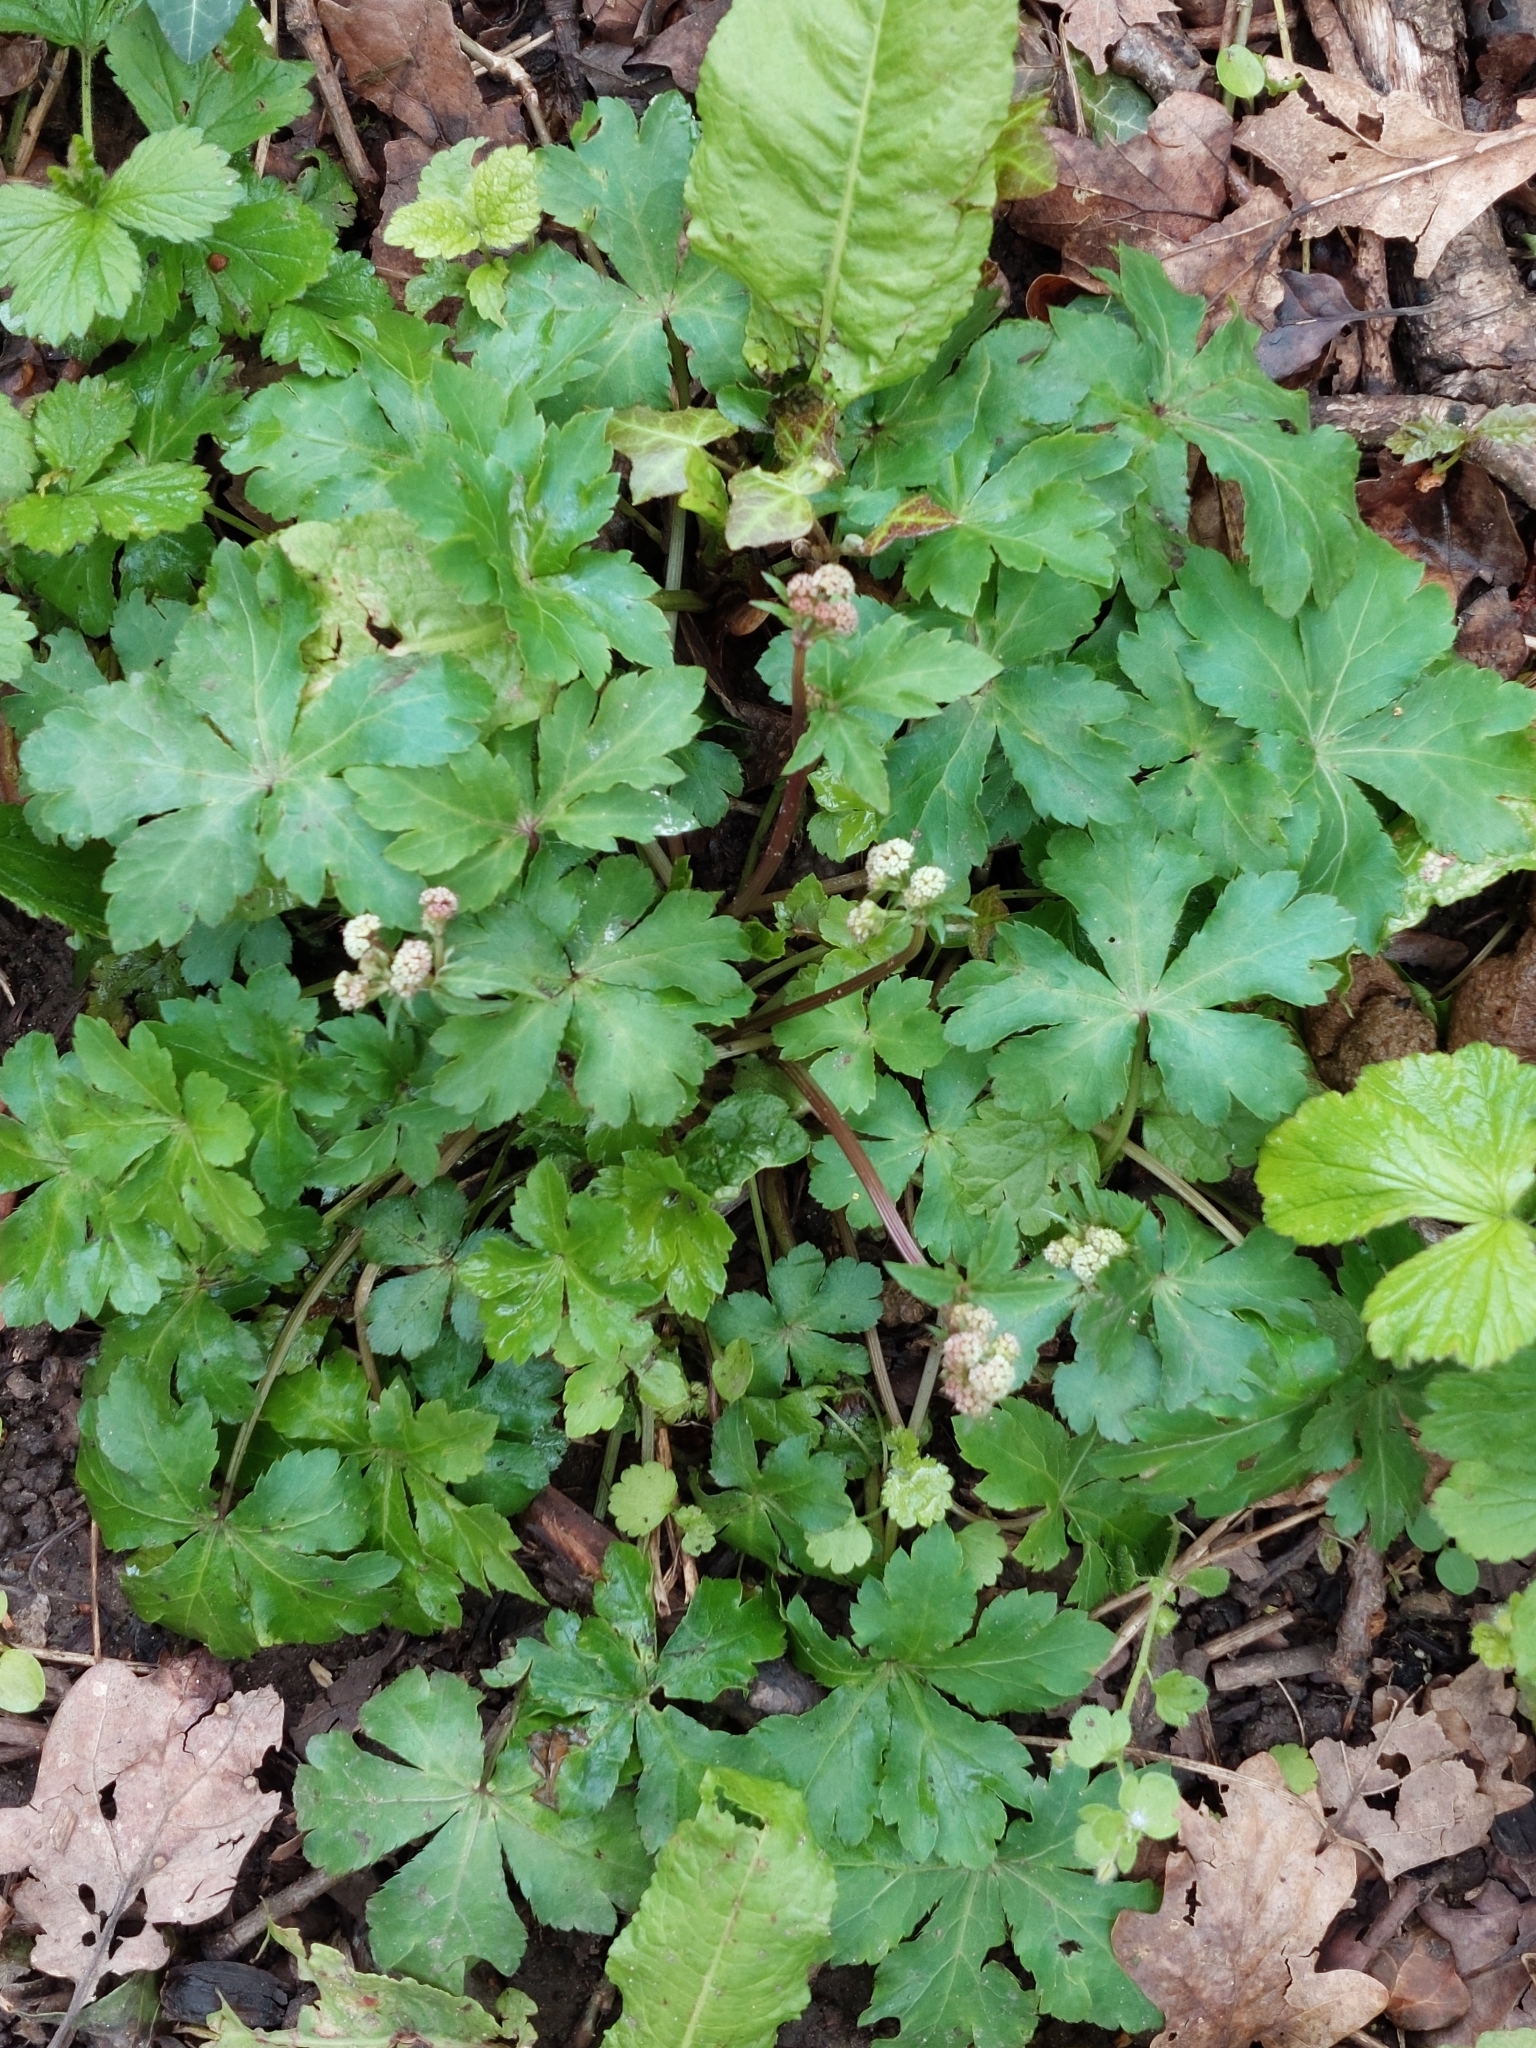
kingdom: Plantae
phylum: Tracheophyta
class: Magnoliopsida
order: Apiales
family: Apiaceae
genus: Sanicula
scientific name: Sanicula europaea
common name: Sanicle
